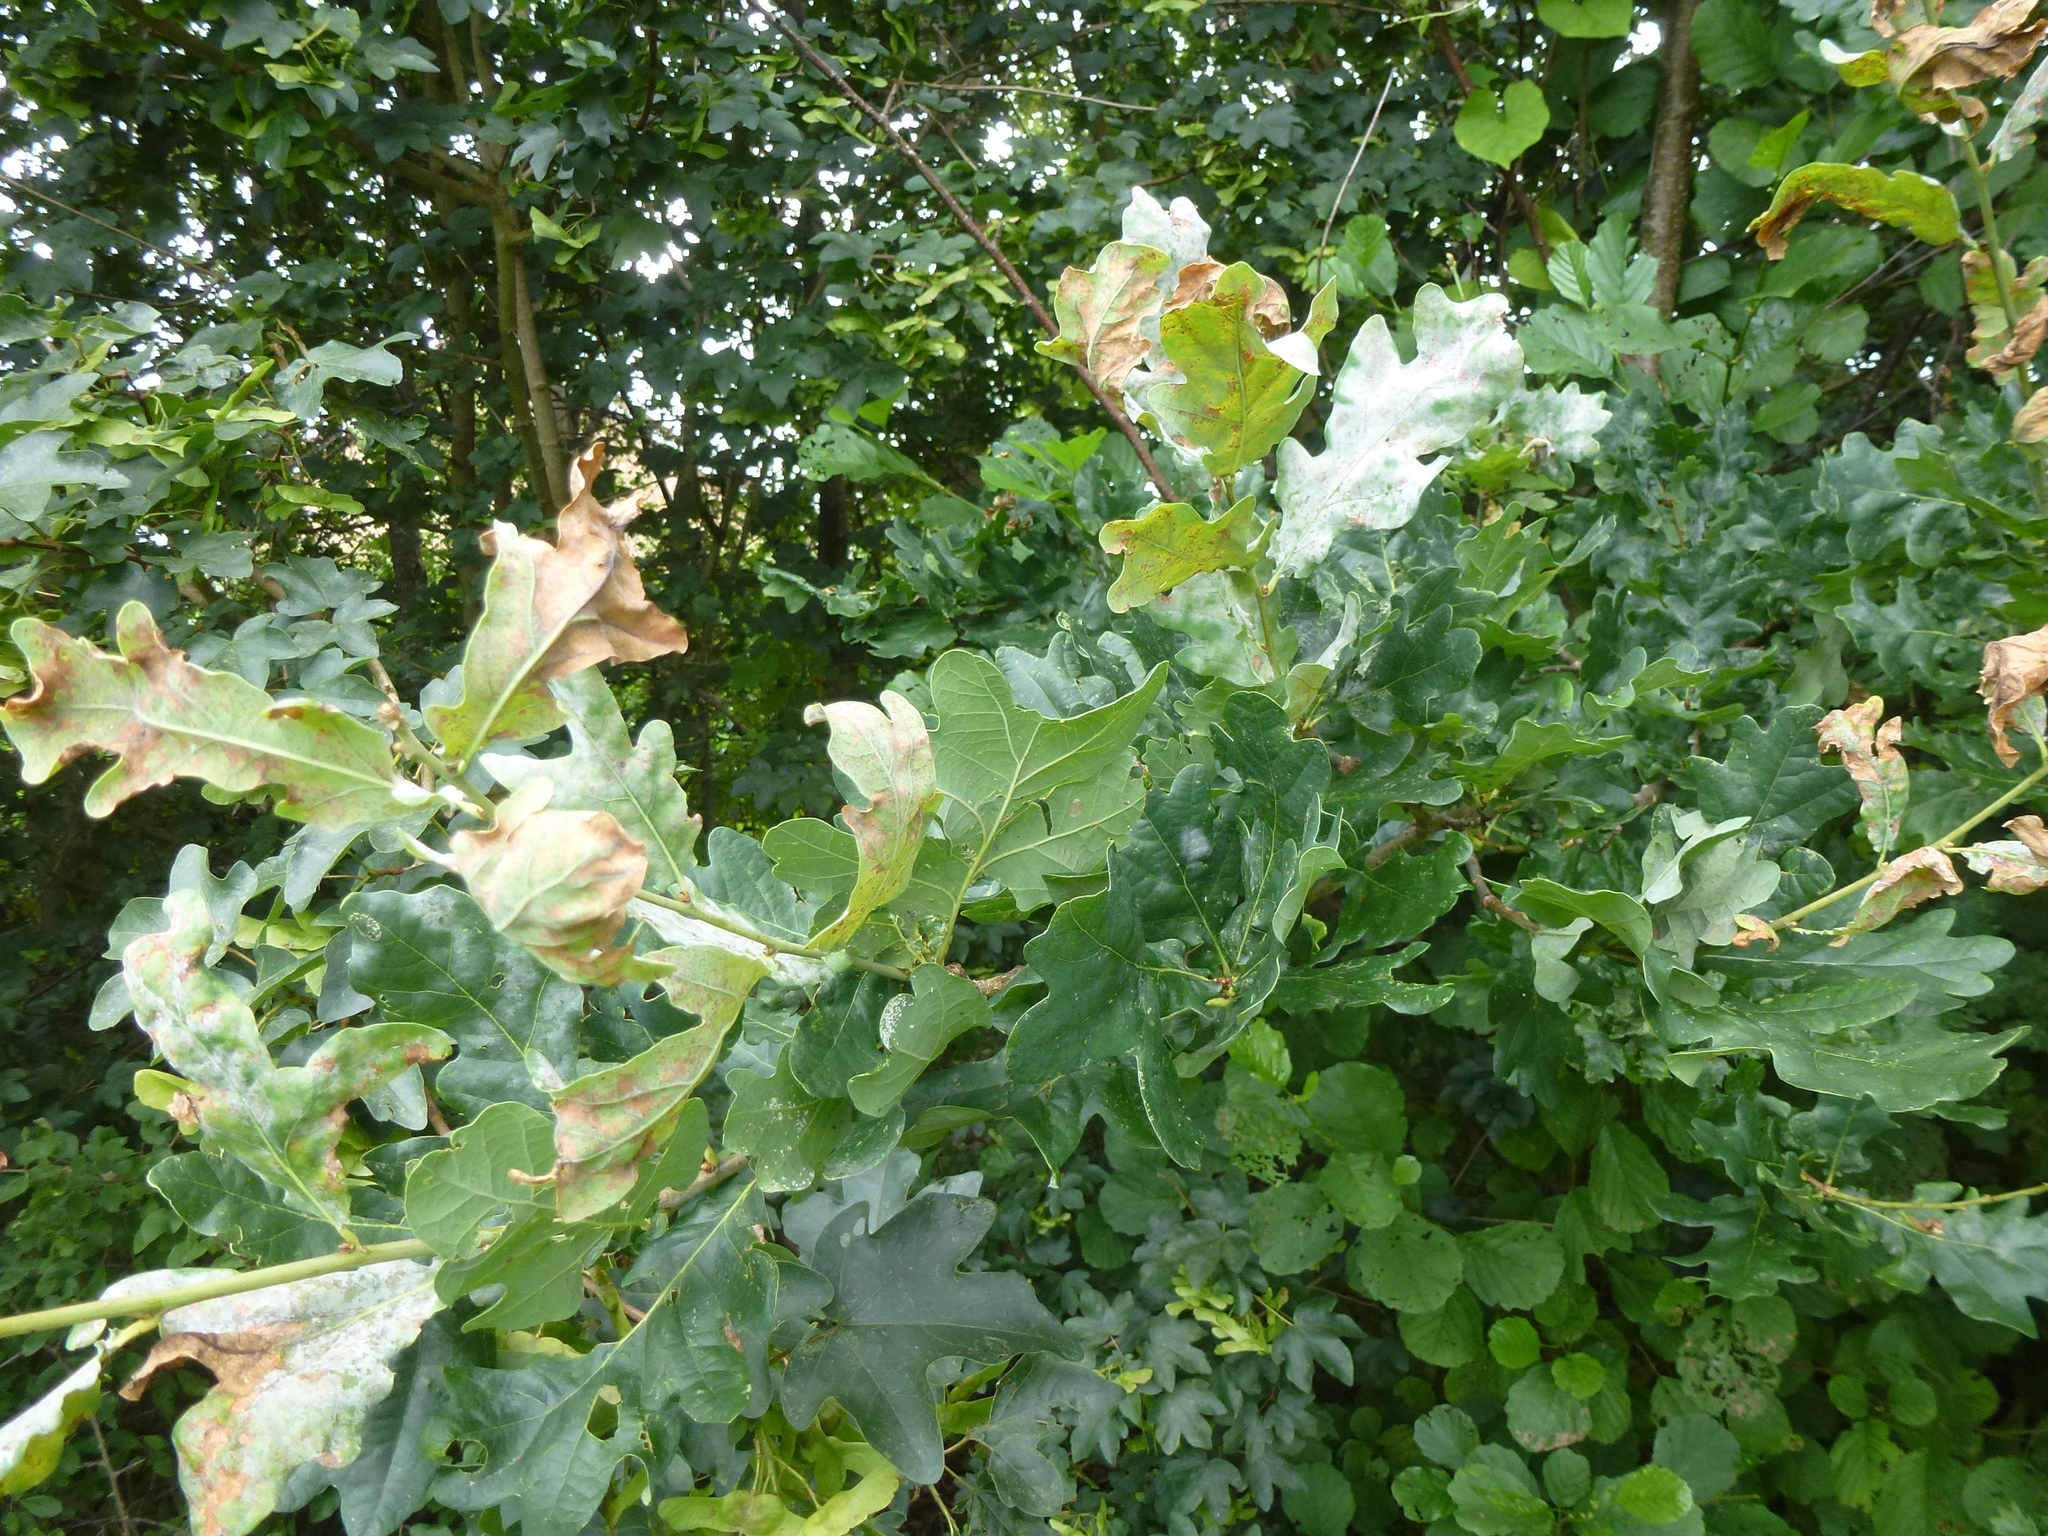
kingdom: Plantae
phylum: Tracheophyta
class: Magnoliopsida
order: Fagales
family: Fagaceae
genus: Quercus
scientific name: Quercus robur
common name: Pedunculate oak
